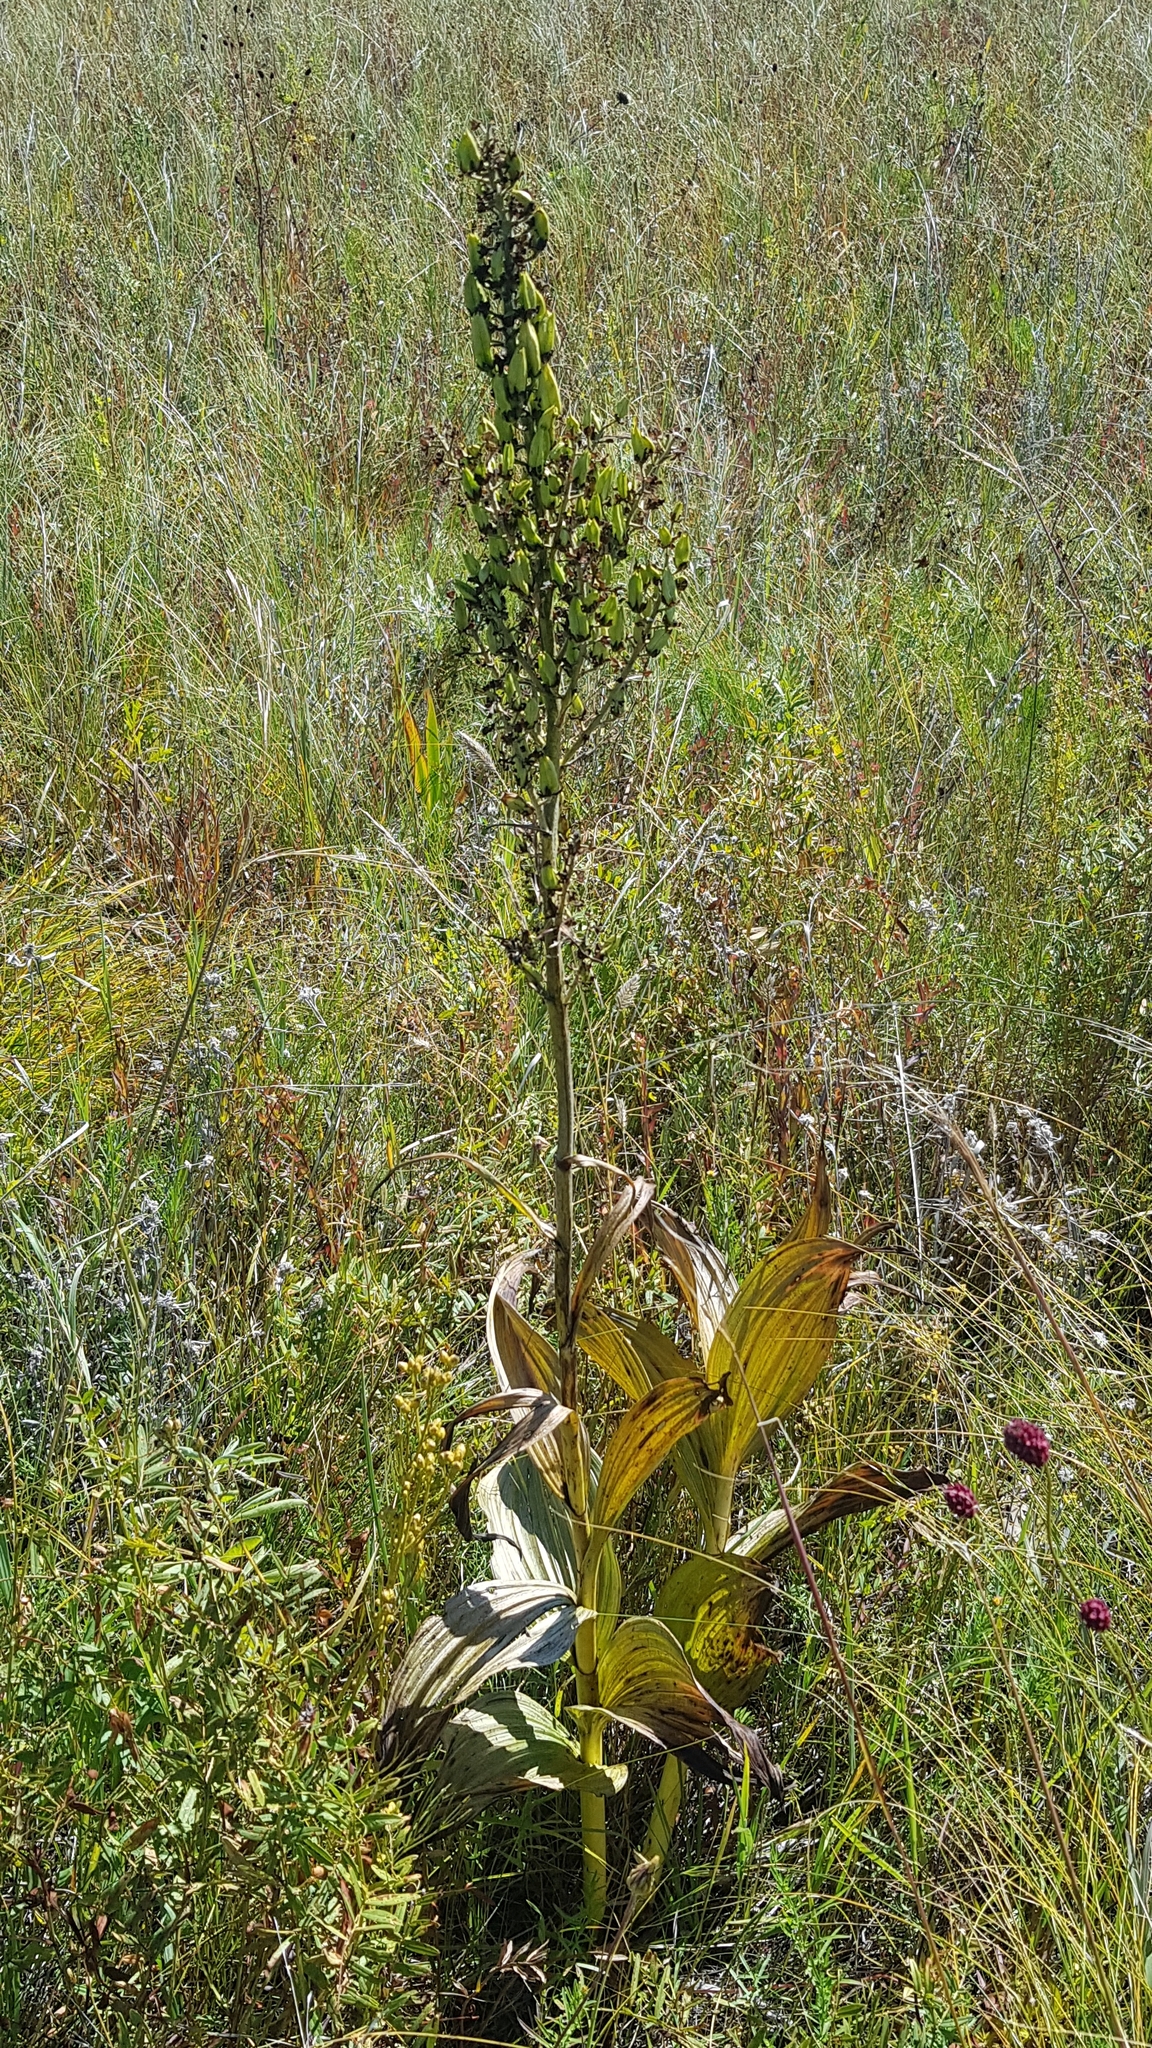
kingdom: Plantae
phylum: Tracheophyta
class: Liliopsida
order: Liliales
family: Melanthiaceae
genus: Veratrum
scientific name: Veratrum nigrum
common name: Black veratrum
